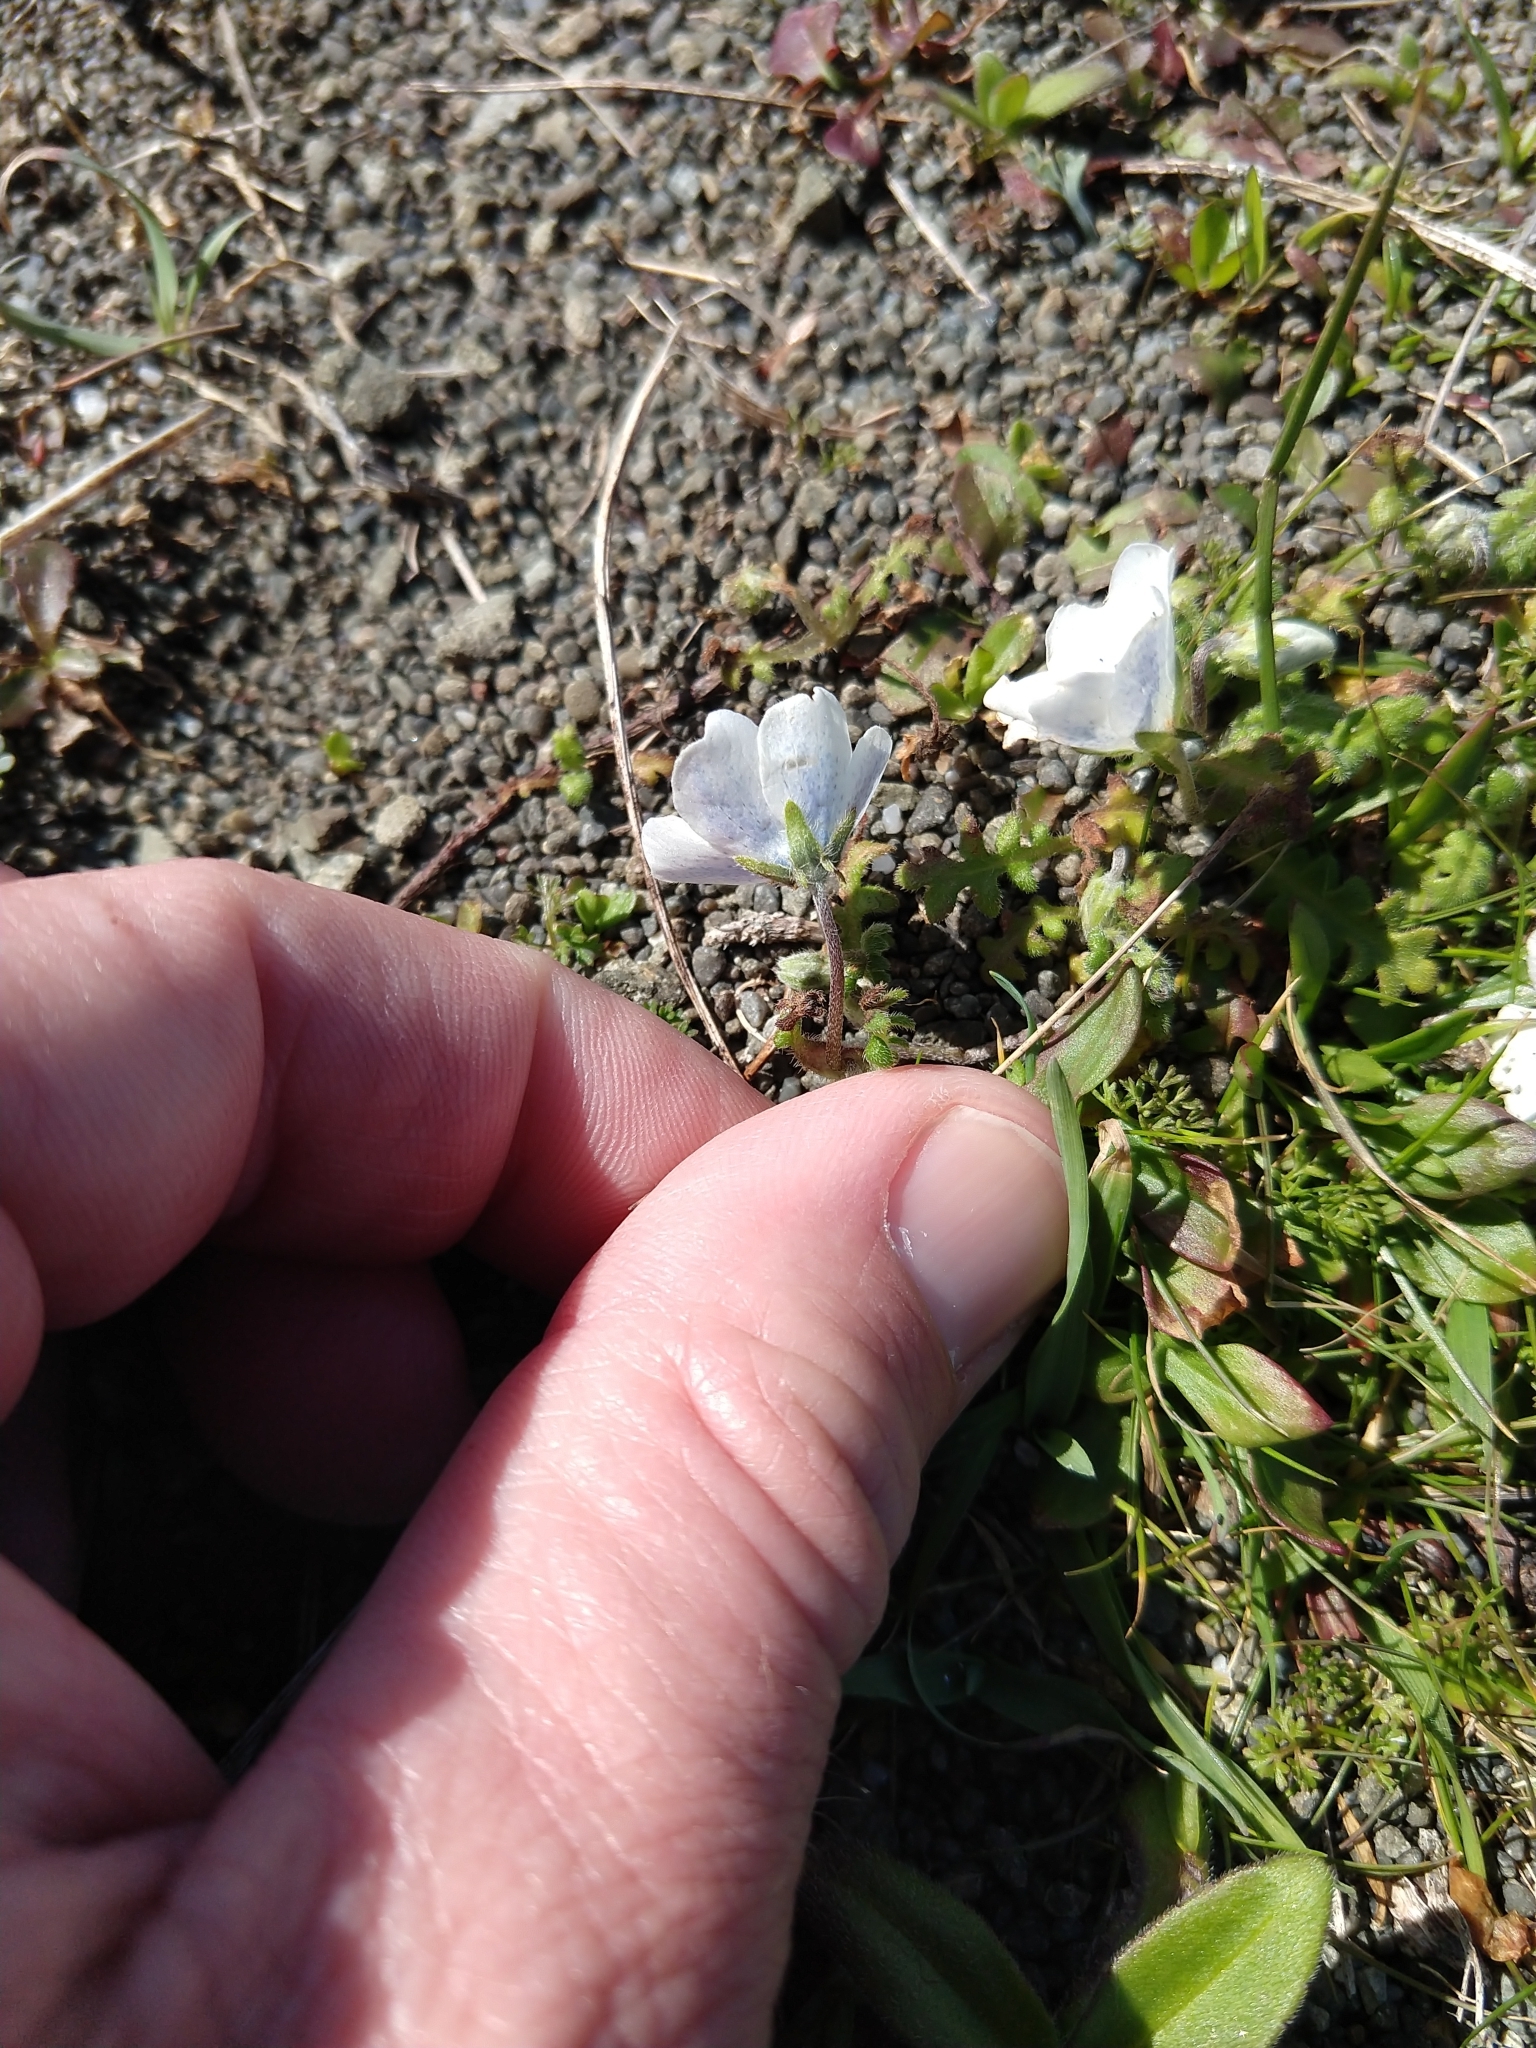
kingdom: Plantae
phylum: Tracheophyta
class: Magnoliopsida
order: Boraginales
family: Hydrophyllaceae
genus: Nemophila
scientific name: Nemophila menziesii
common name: Baby's-blue-eyes
